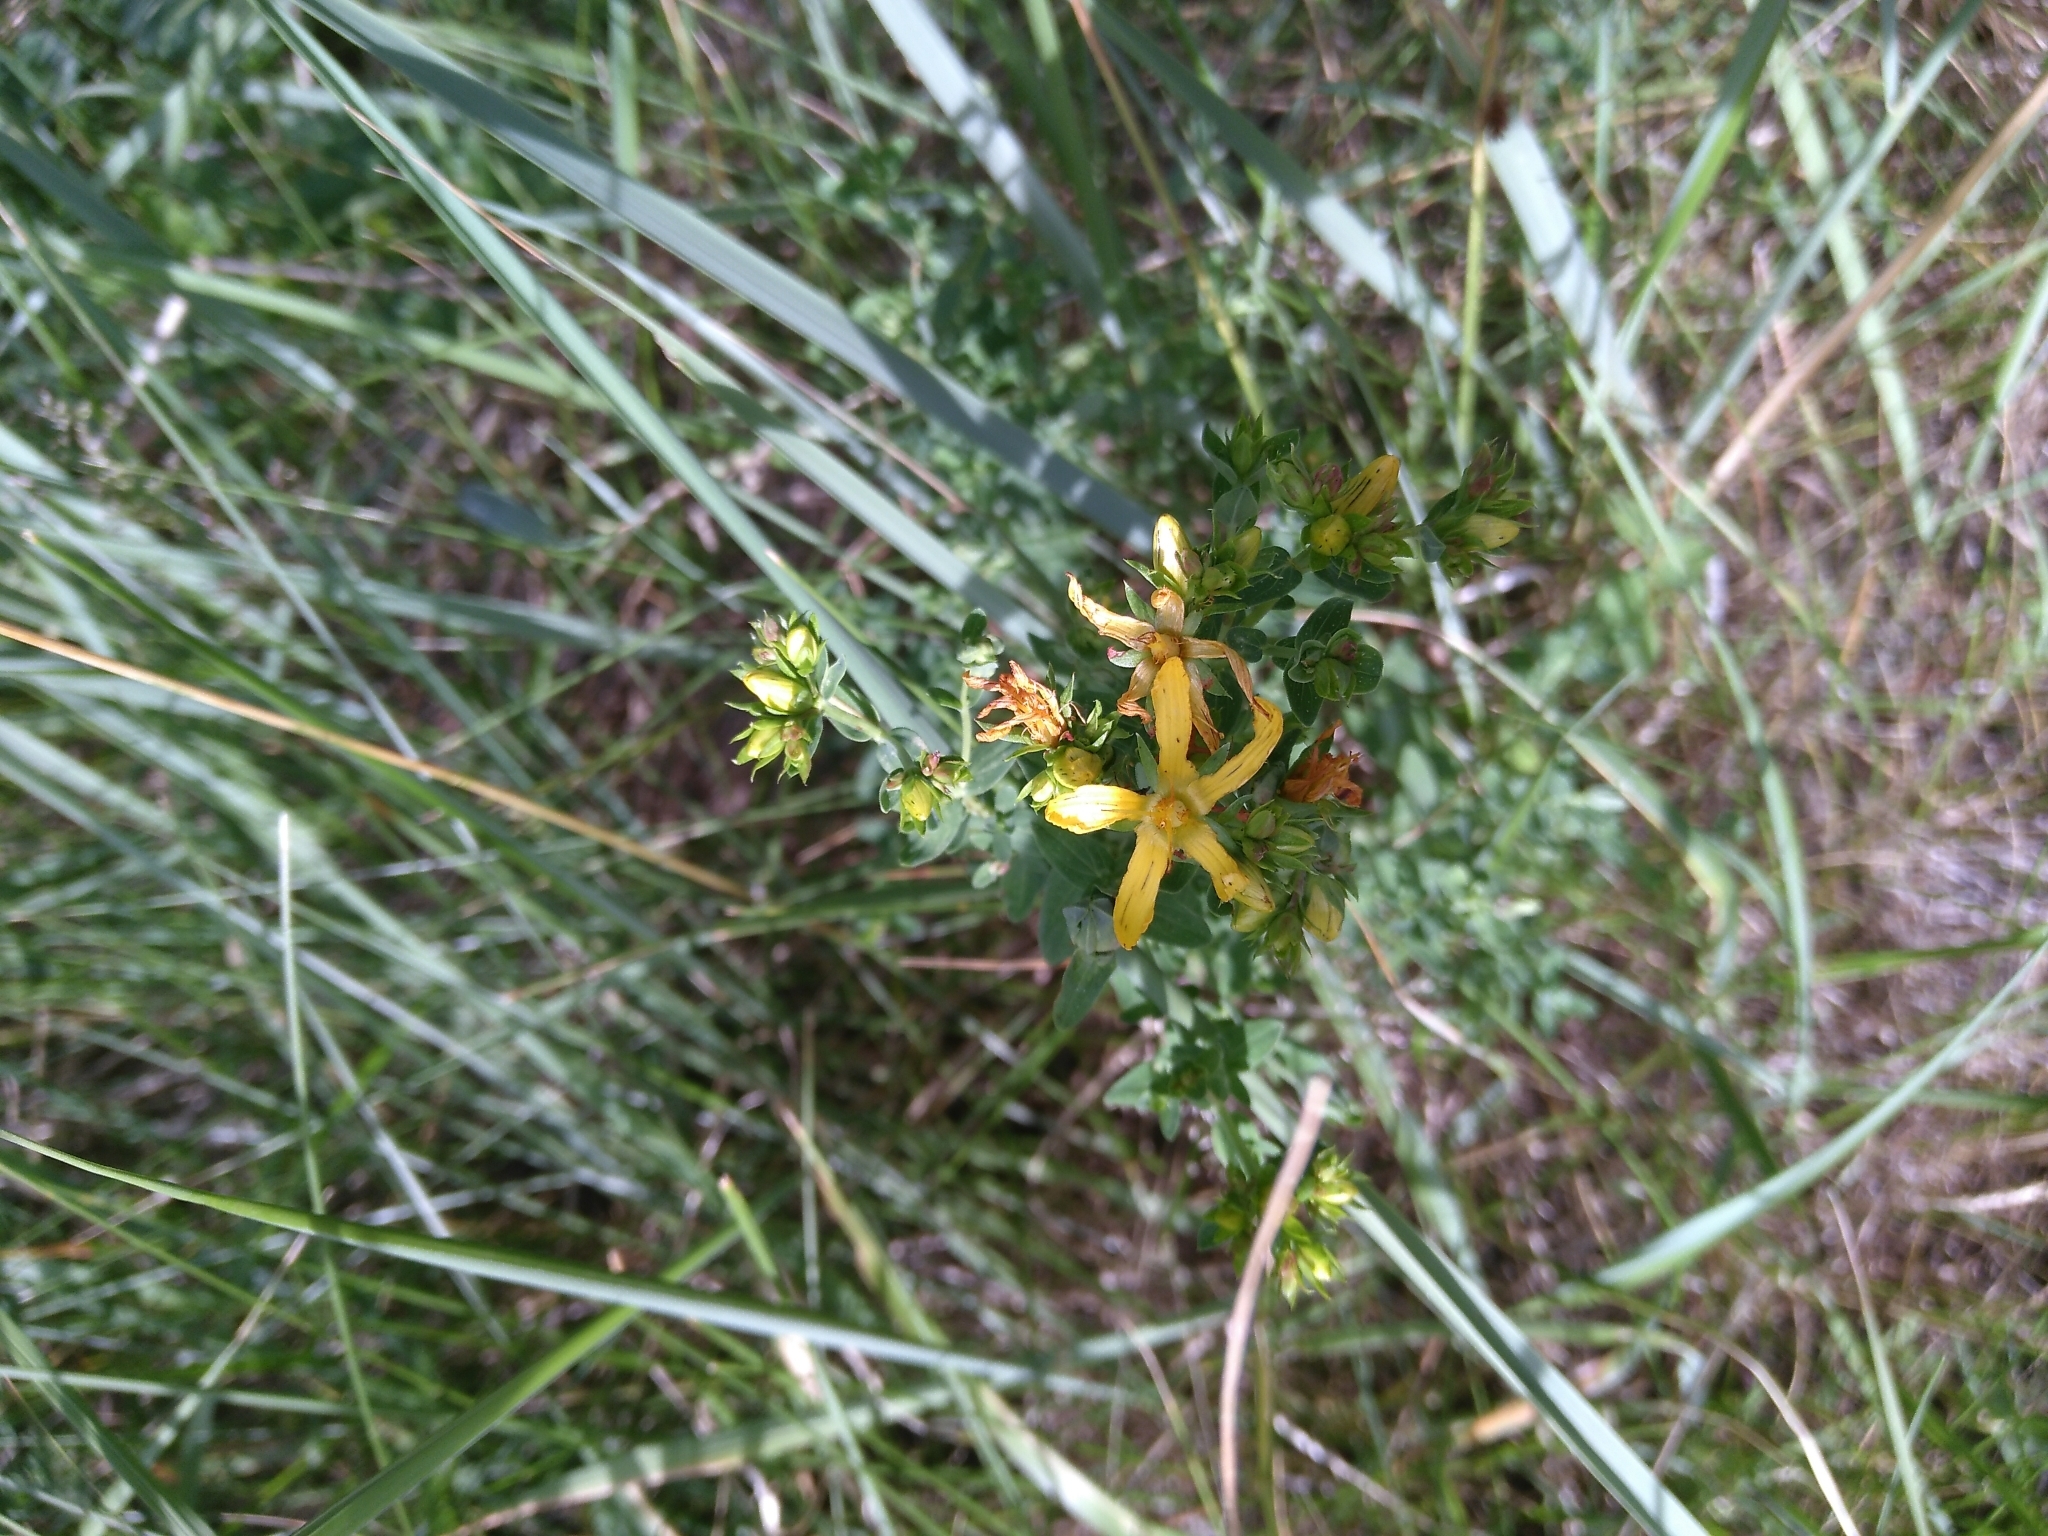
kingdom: Plantae
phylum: Tracheophyta
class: Magnoliopsida
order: Malpighiales
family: Hypericaceae
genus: Hypericum
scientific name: Hypericum perforatum
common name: Common st. johnswort
